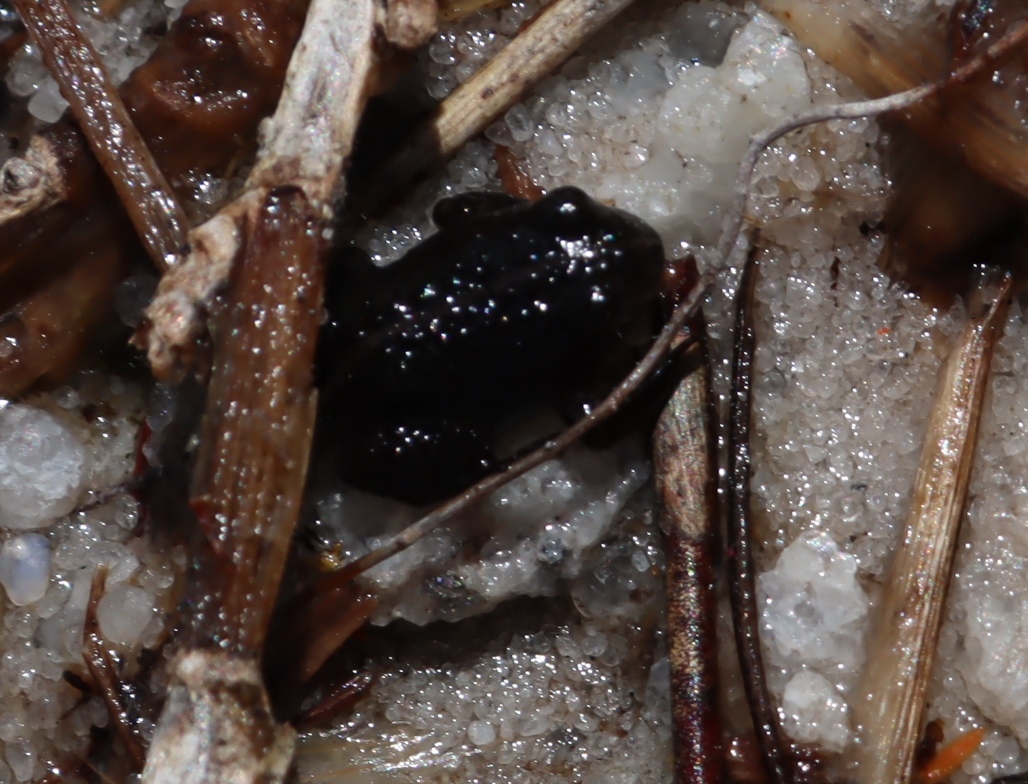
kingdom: Animalia
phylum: Chordata
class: Amphibia
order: Anura
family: Pyxicephalidae
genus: Poyntonia
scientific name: Poyntonia paludicola
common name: Montane marsh frog
